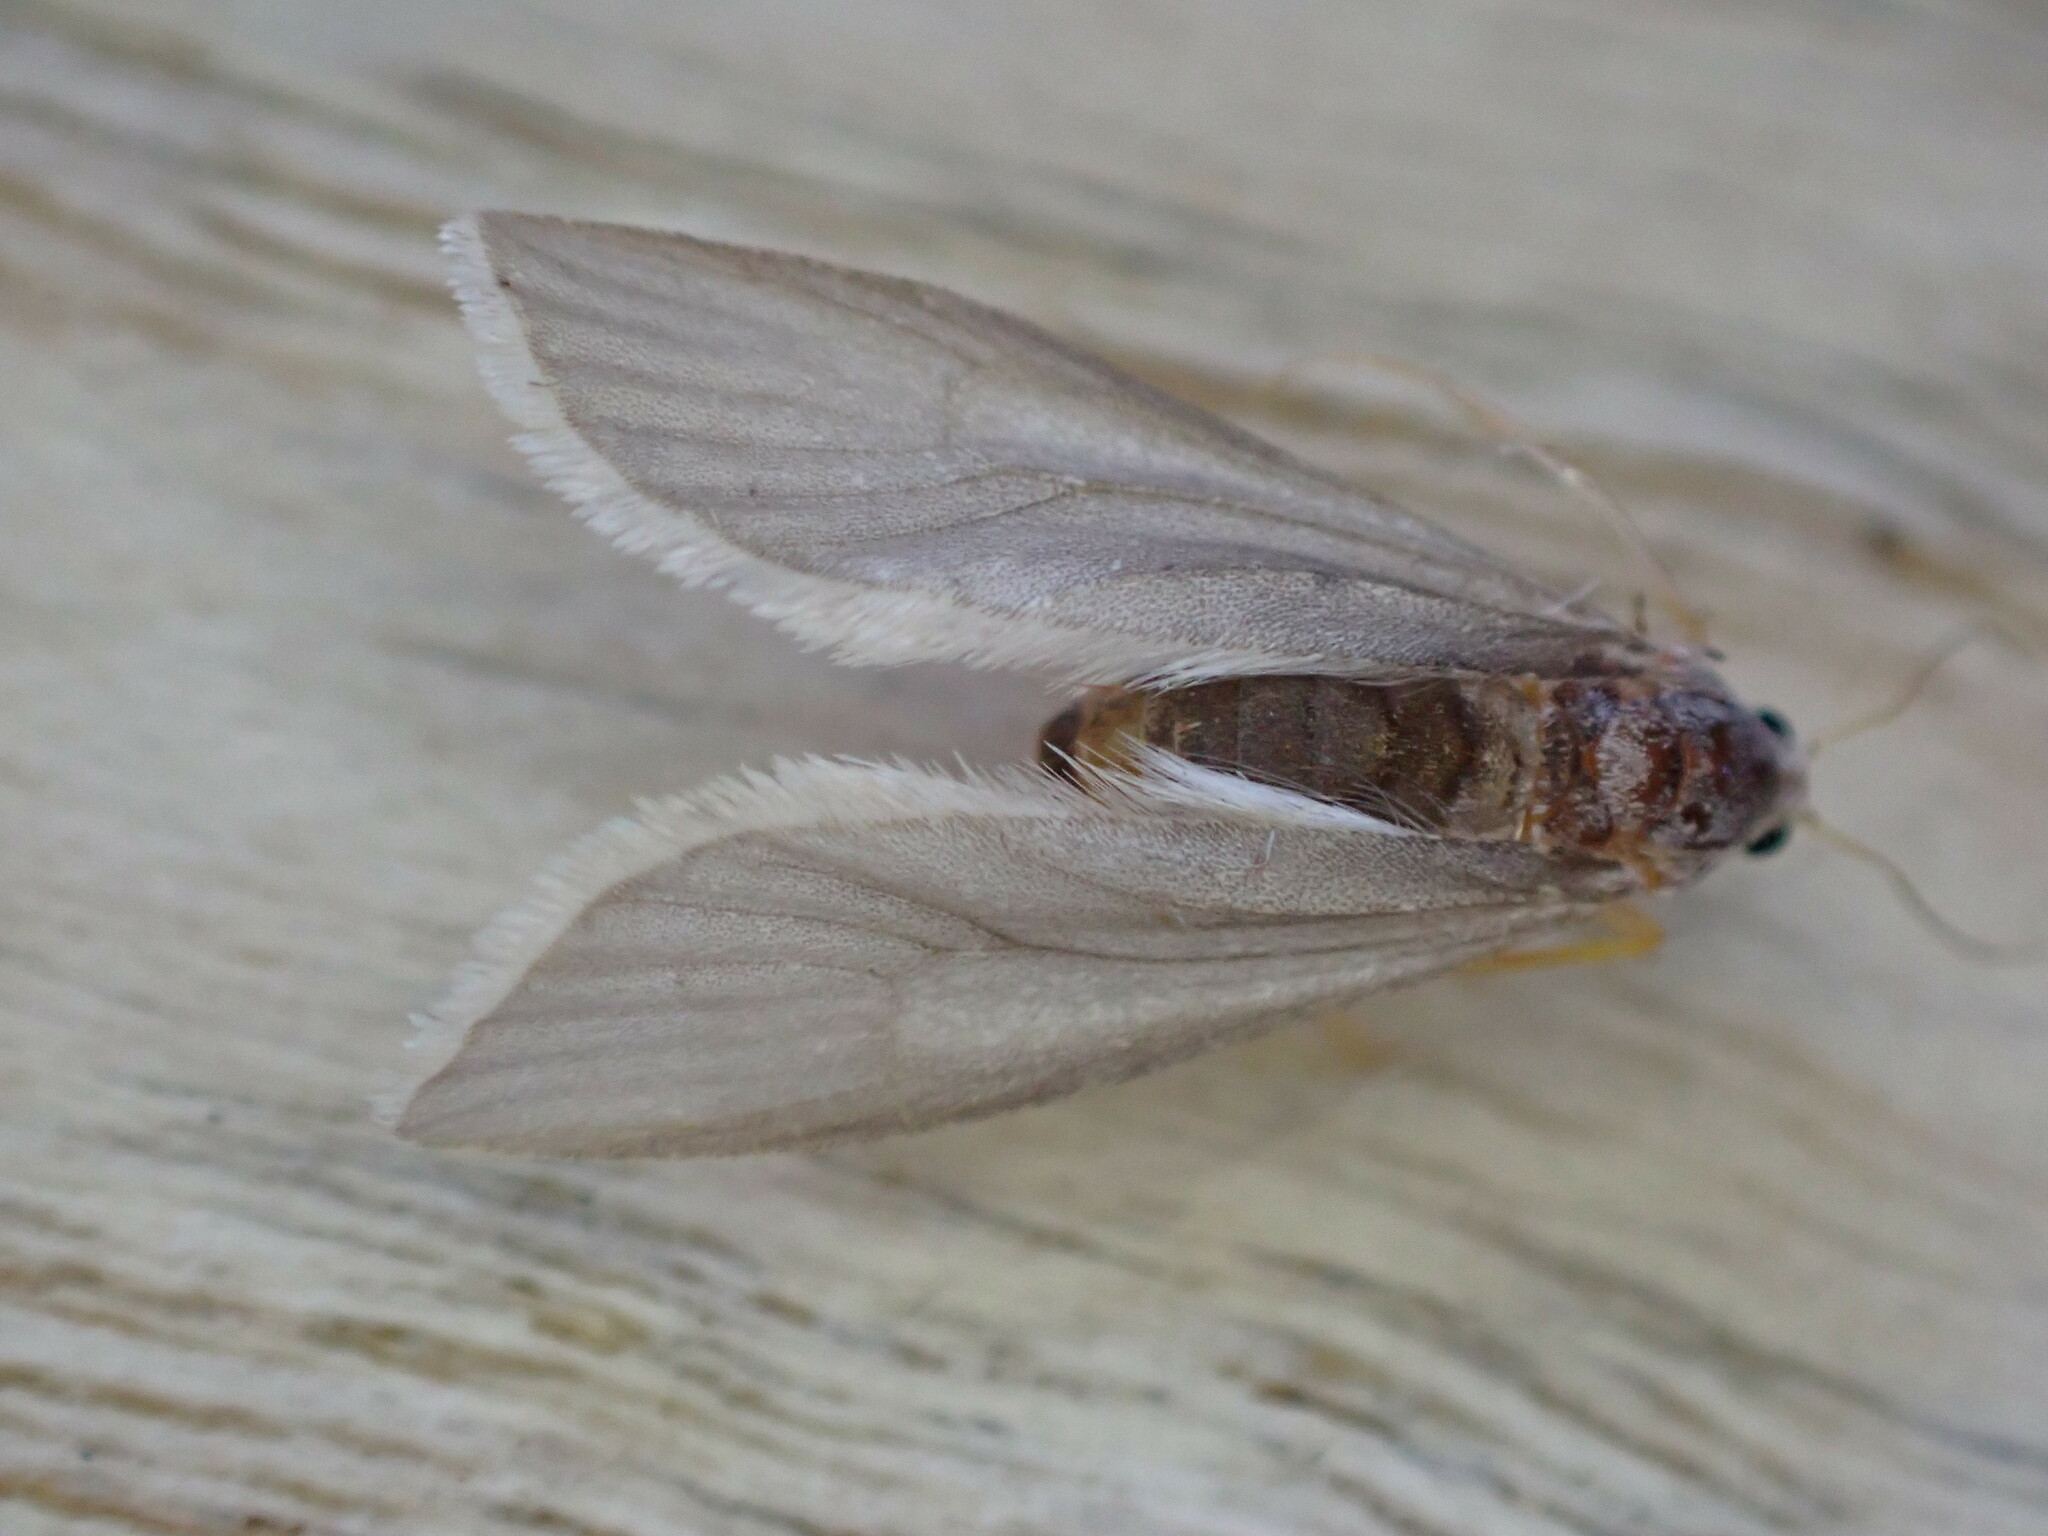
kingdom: Animalia
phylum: Arthropoda
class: Insecta
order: Lepidoptera
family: Crambidae
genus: Acentria
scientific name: Acentria ephemerella
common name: European water moth
